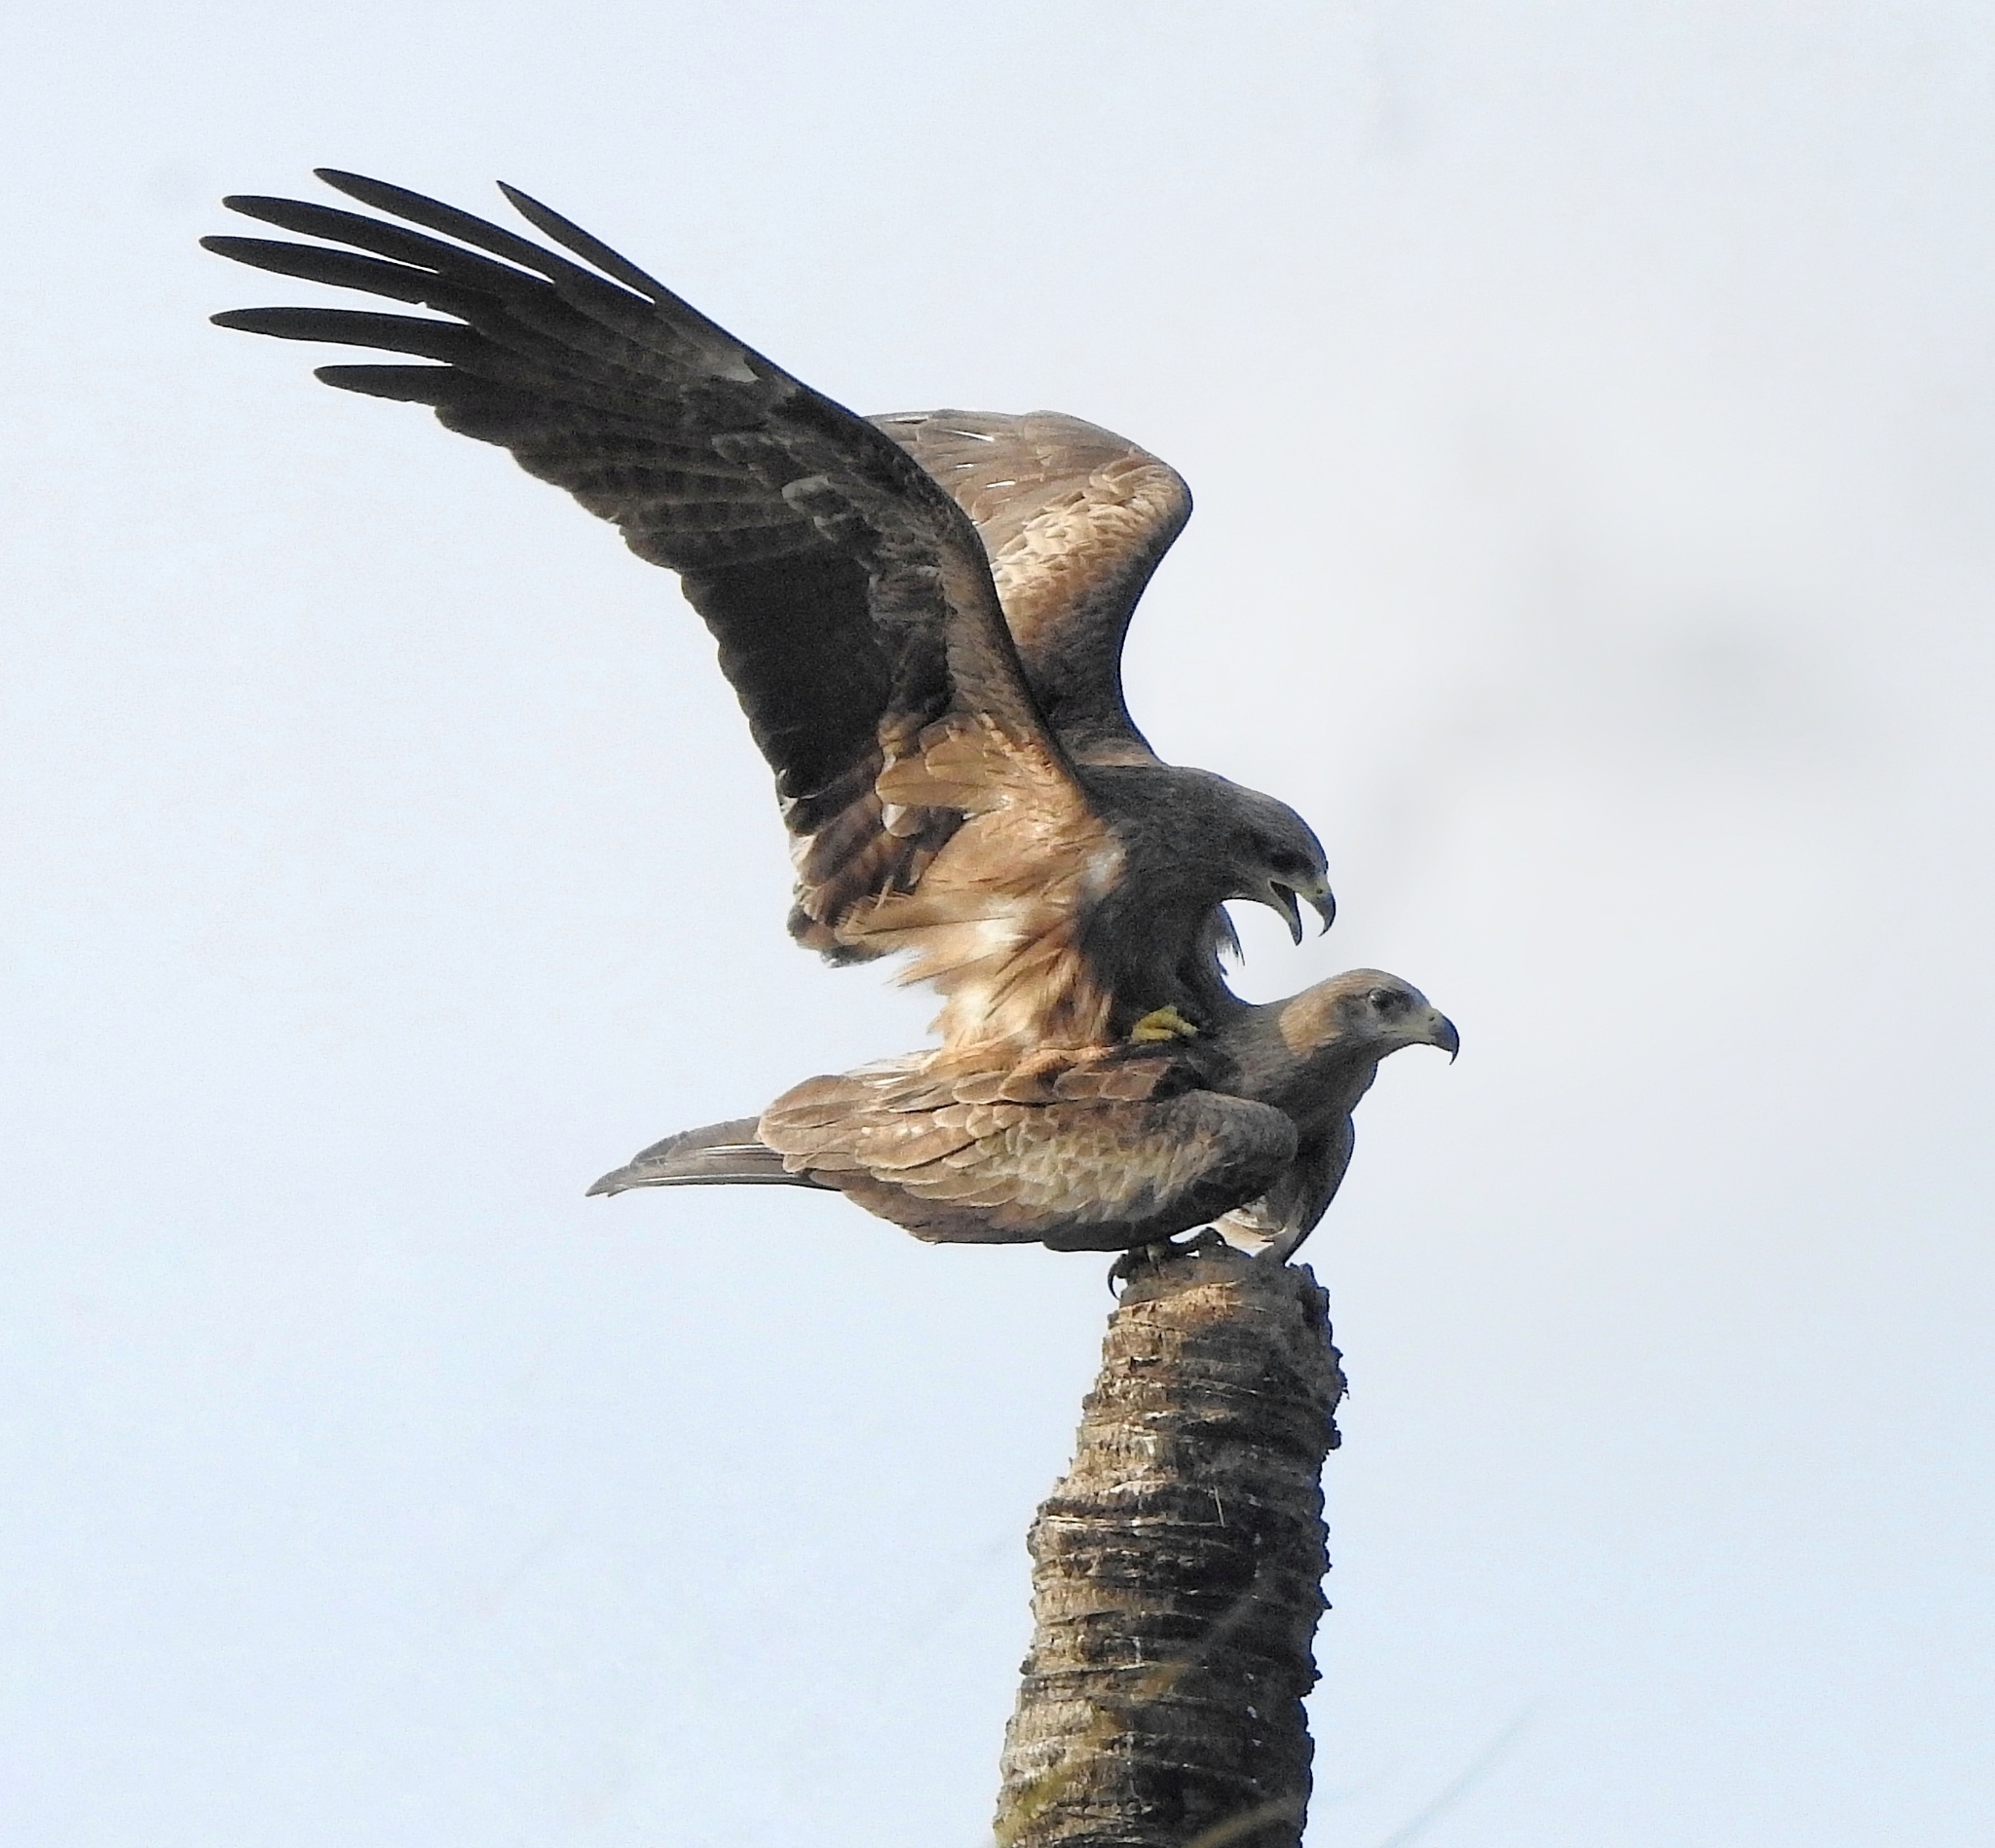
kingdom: Animalia
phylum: Chordata
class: Aves
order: Accipitriformes
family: Accipitridae
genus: Milvus
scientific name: Milvus migrans
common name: Black kite
